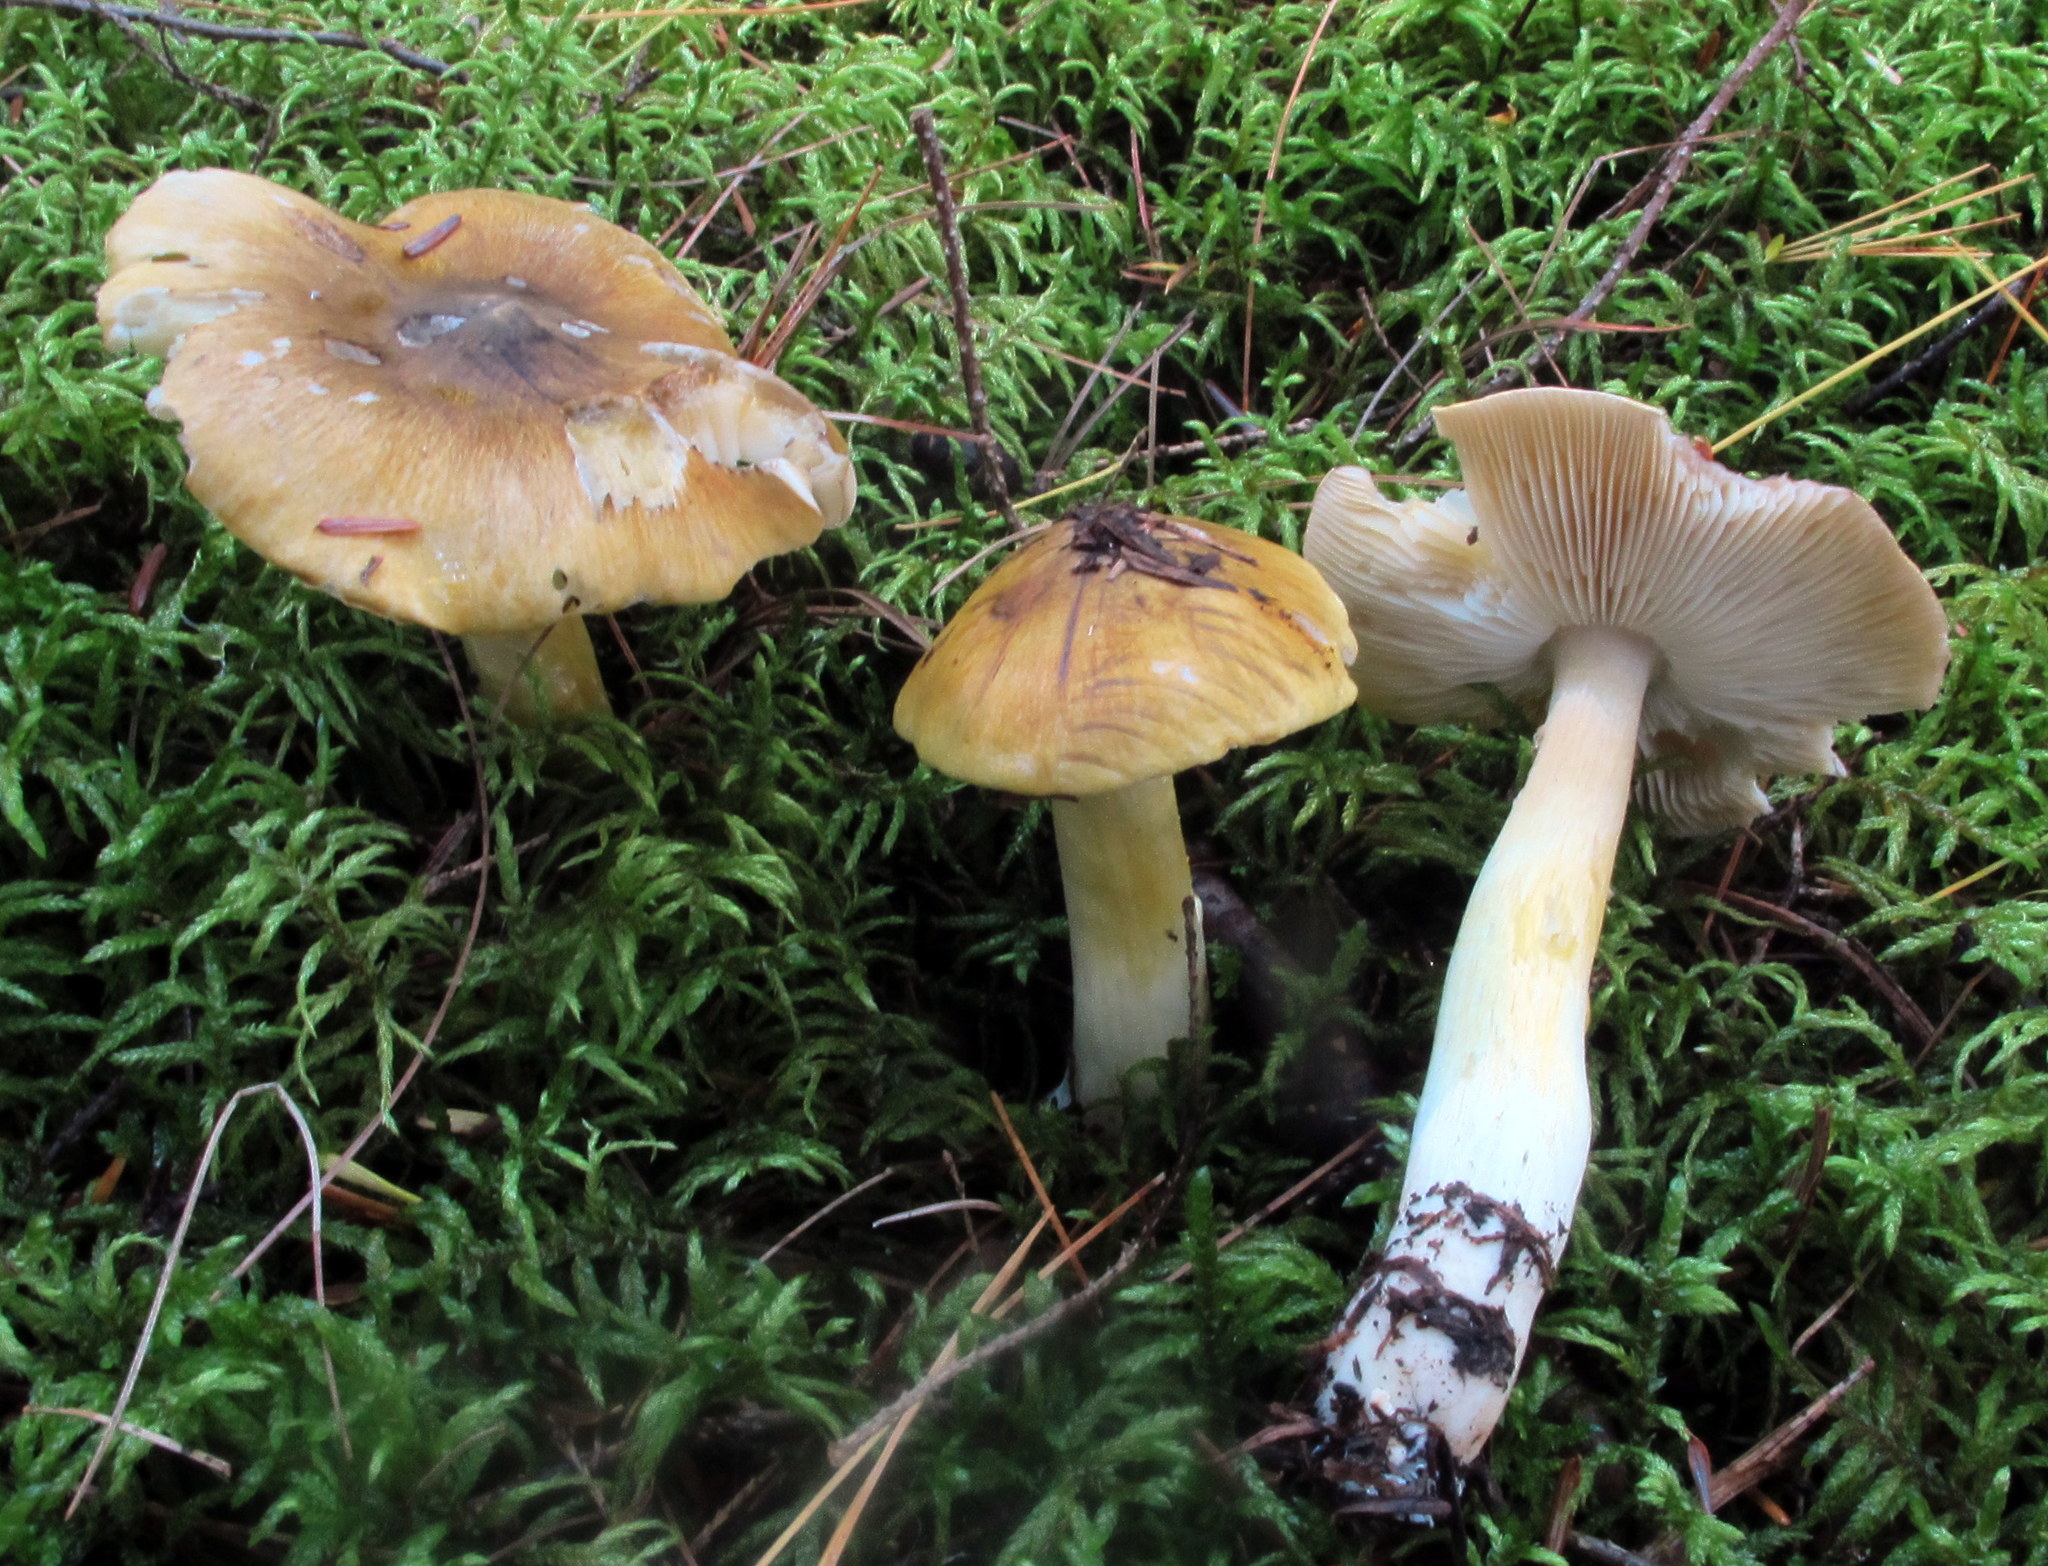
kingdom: Fungi
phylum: Basidiomycota
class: Agaricomycetes
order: Agaricales
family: Tricholomataceae
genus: Tricholoma
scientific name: Tricholoma subluteum
